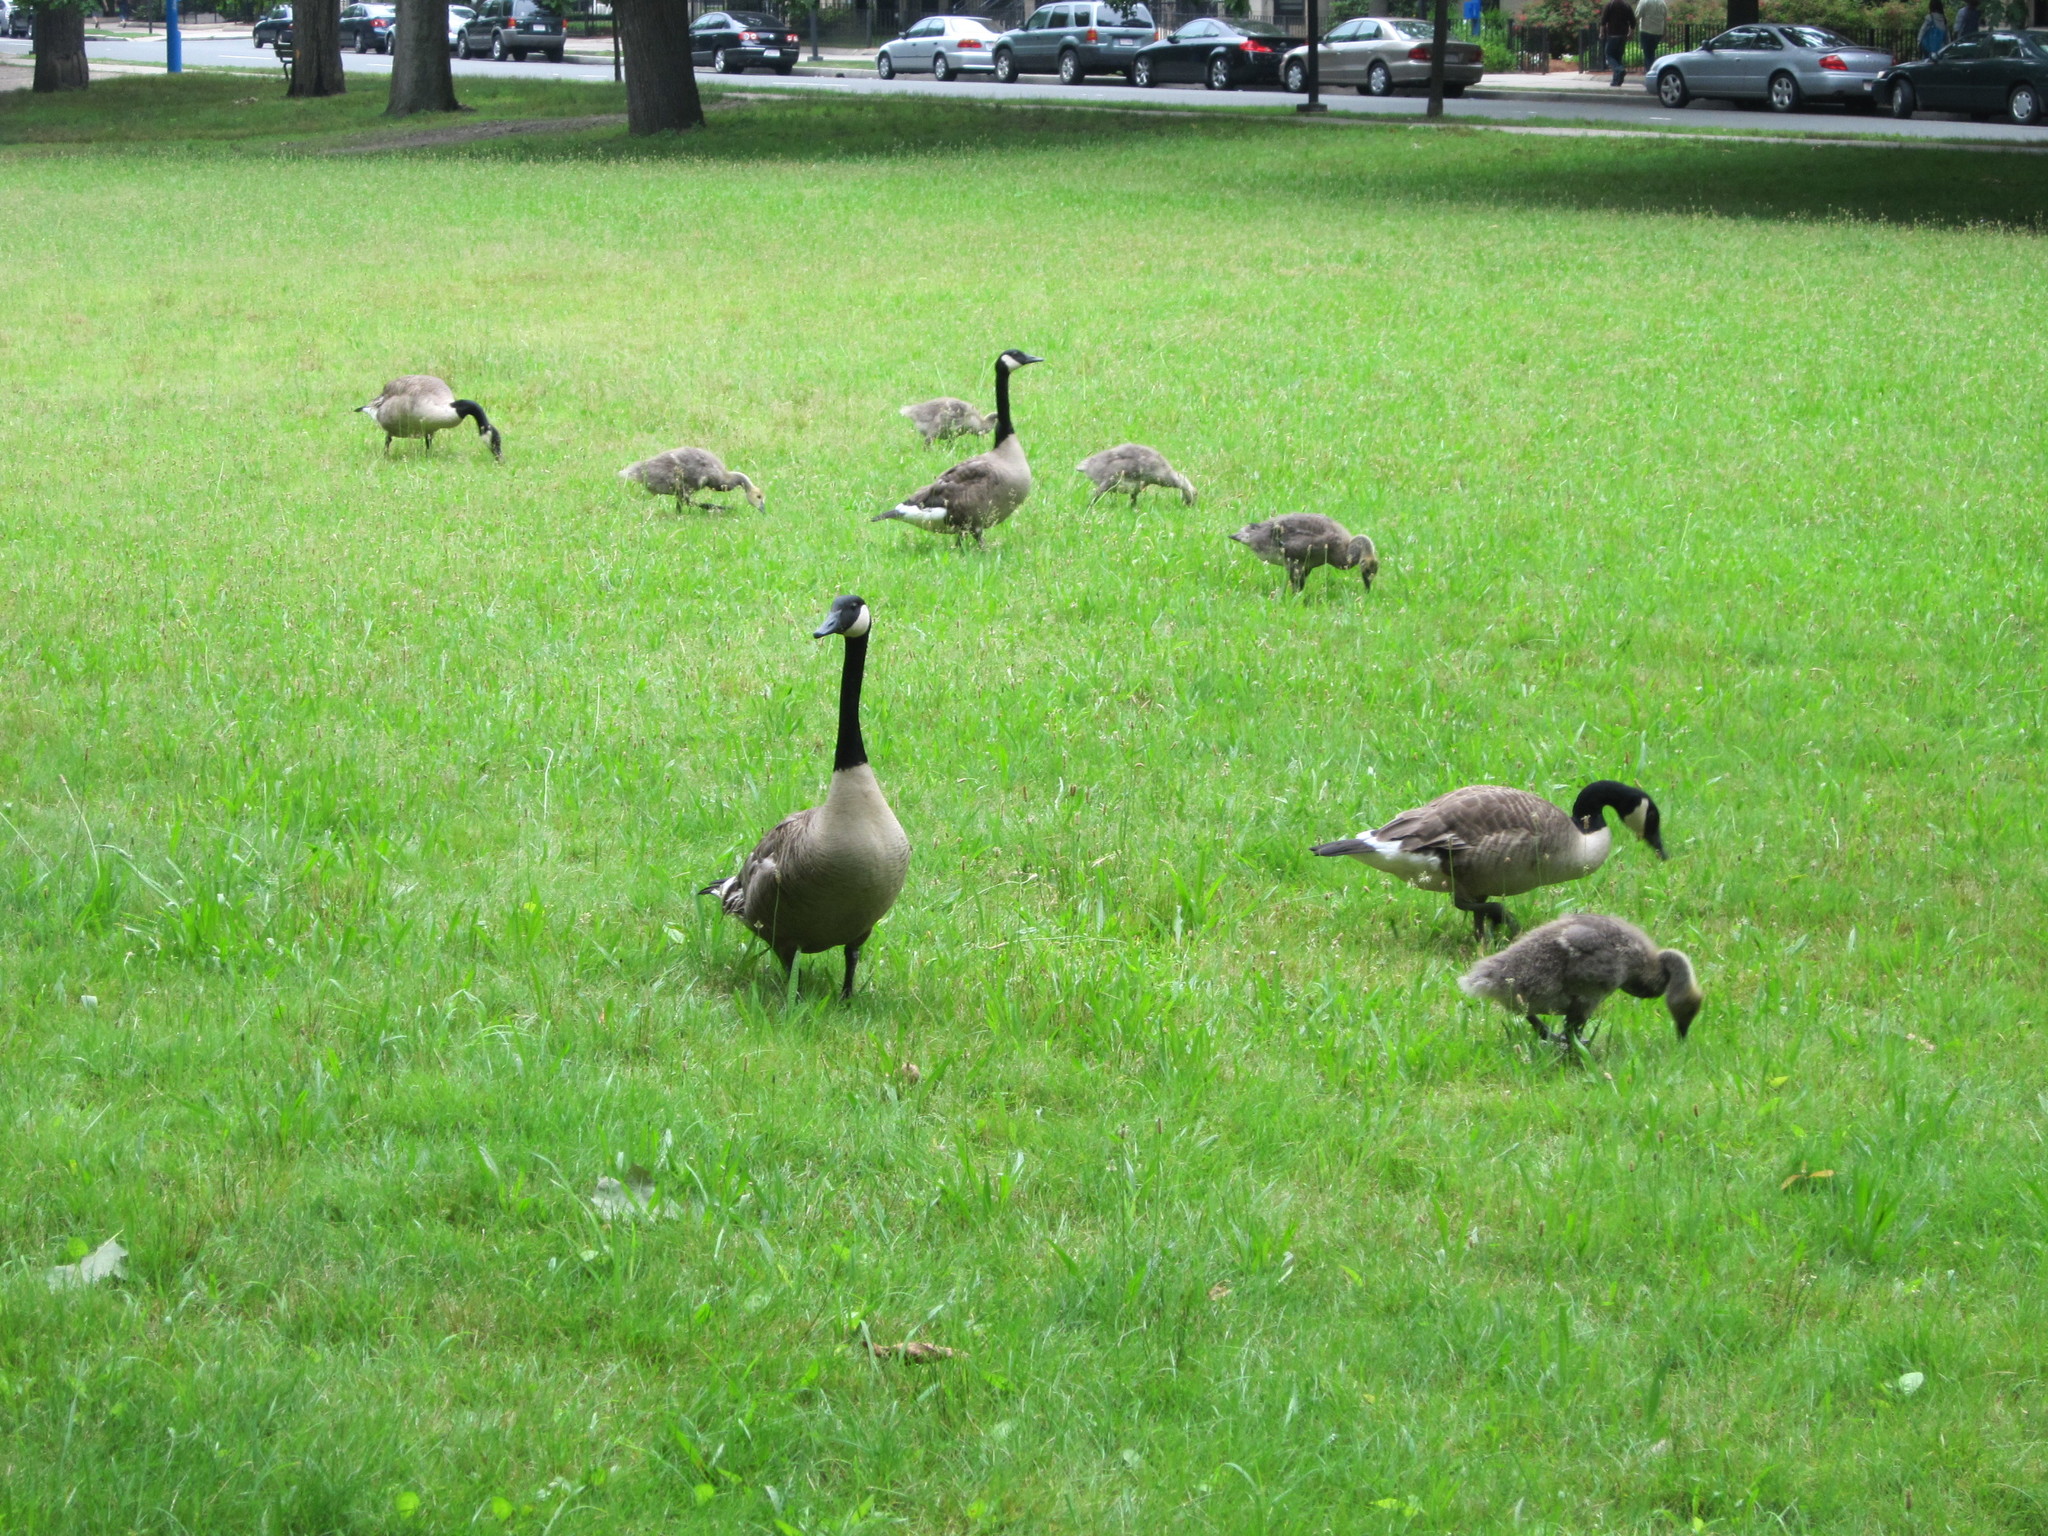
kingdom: Animalia
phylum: Chordata
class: Aves
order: Anseriformes
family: Anatidae
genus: Branta
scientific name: Branta canadensis
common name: Canada goose
